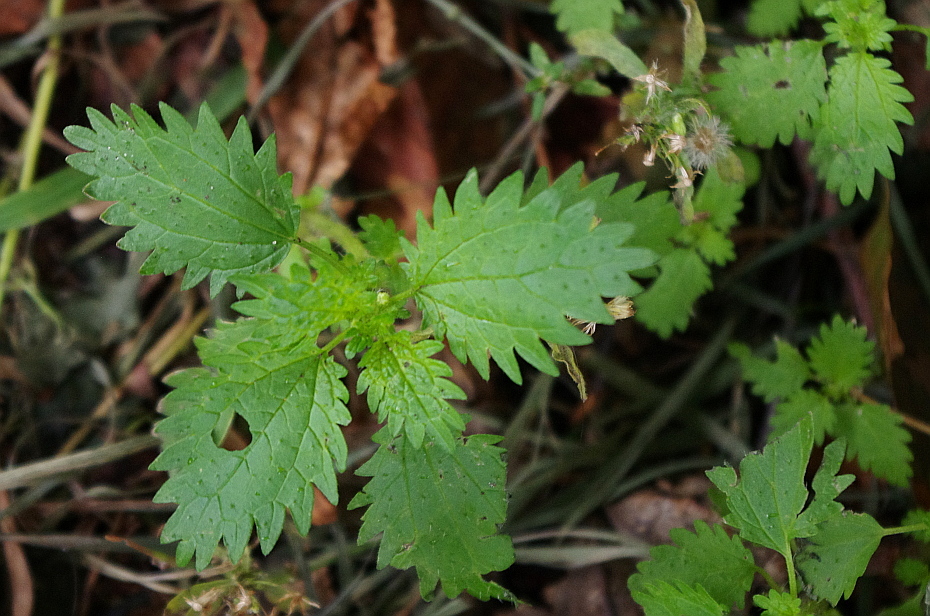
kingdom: Plantae
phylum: Tracheophyta
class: Magnoliopsida
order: Rosales
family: Urticaceae
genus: Urtica
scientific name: Urtica urens
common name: Dwarf nettle
